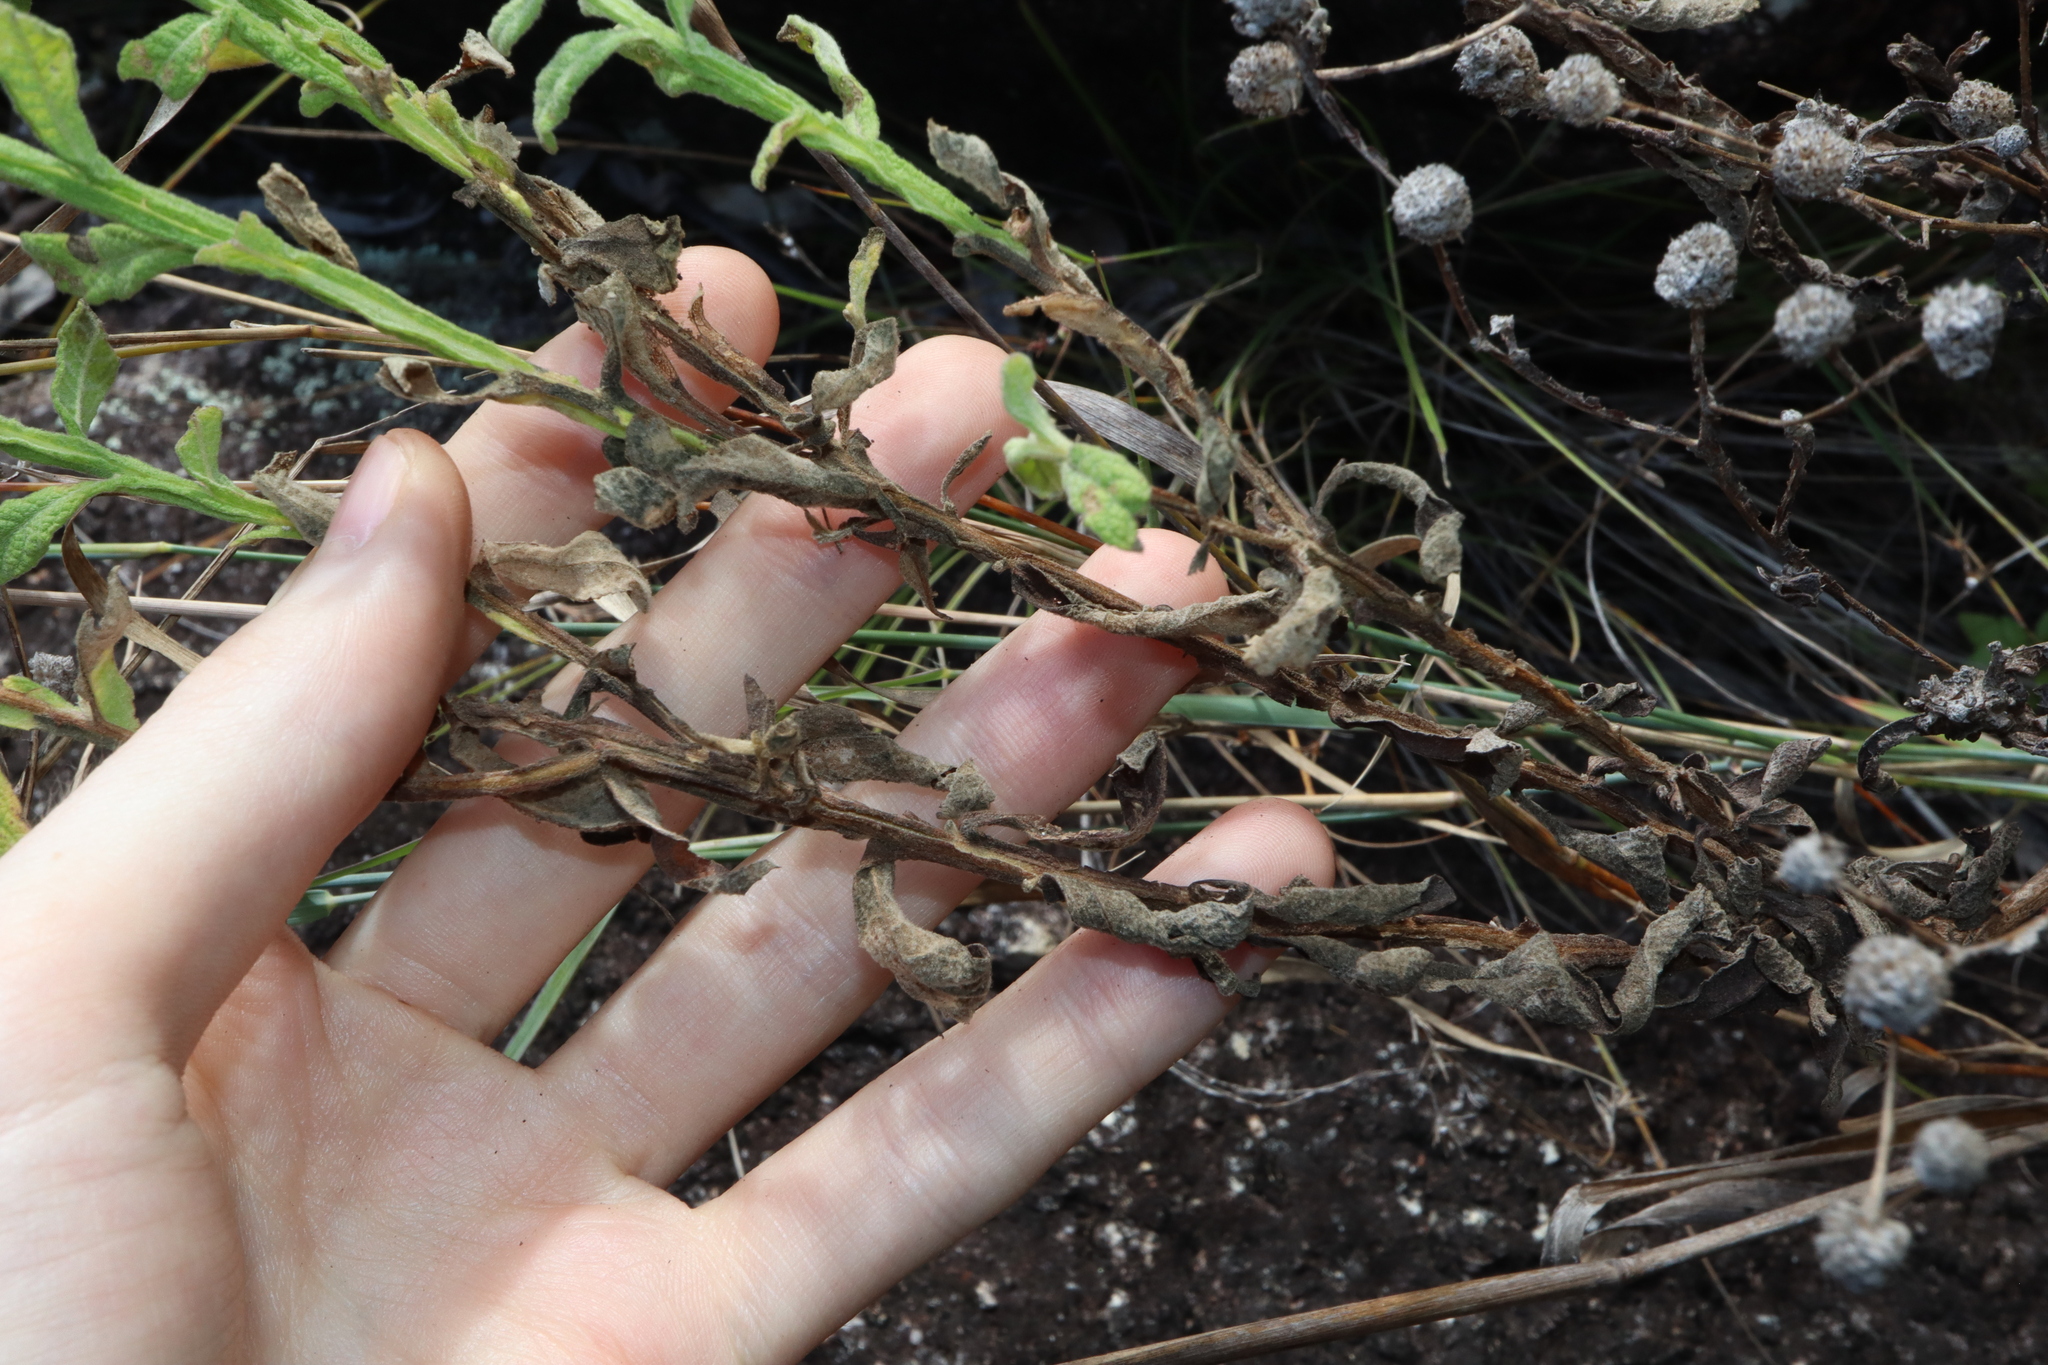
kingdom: Plantae
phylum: Tracheophyta
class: Magnoliopsida
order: Asterales
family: Asteraceae
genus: Pterocaulon
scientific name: Pterocaulon sphacelatum
